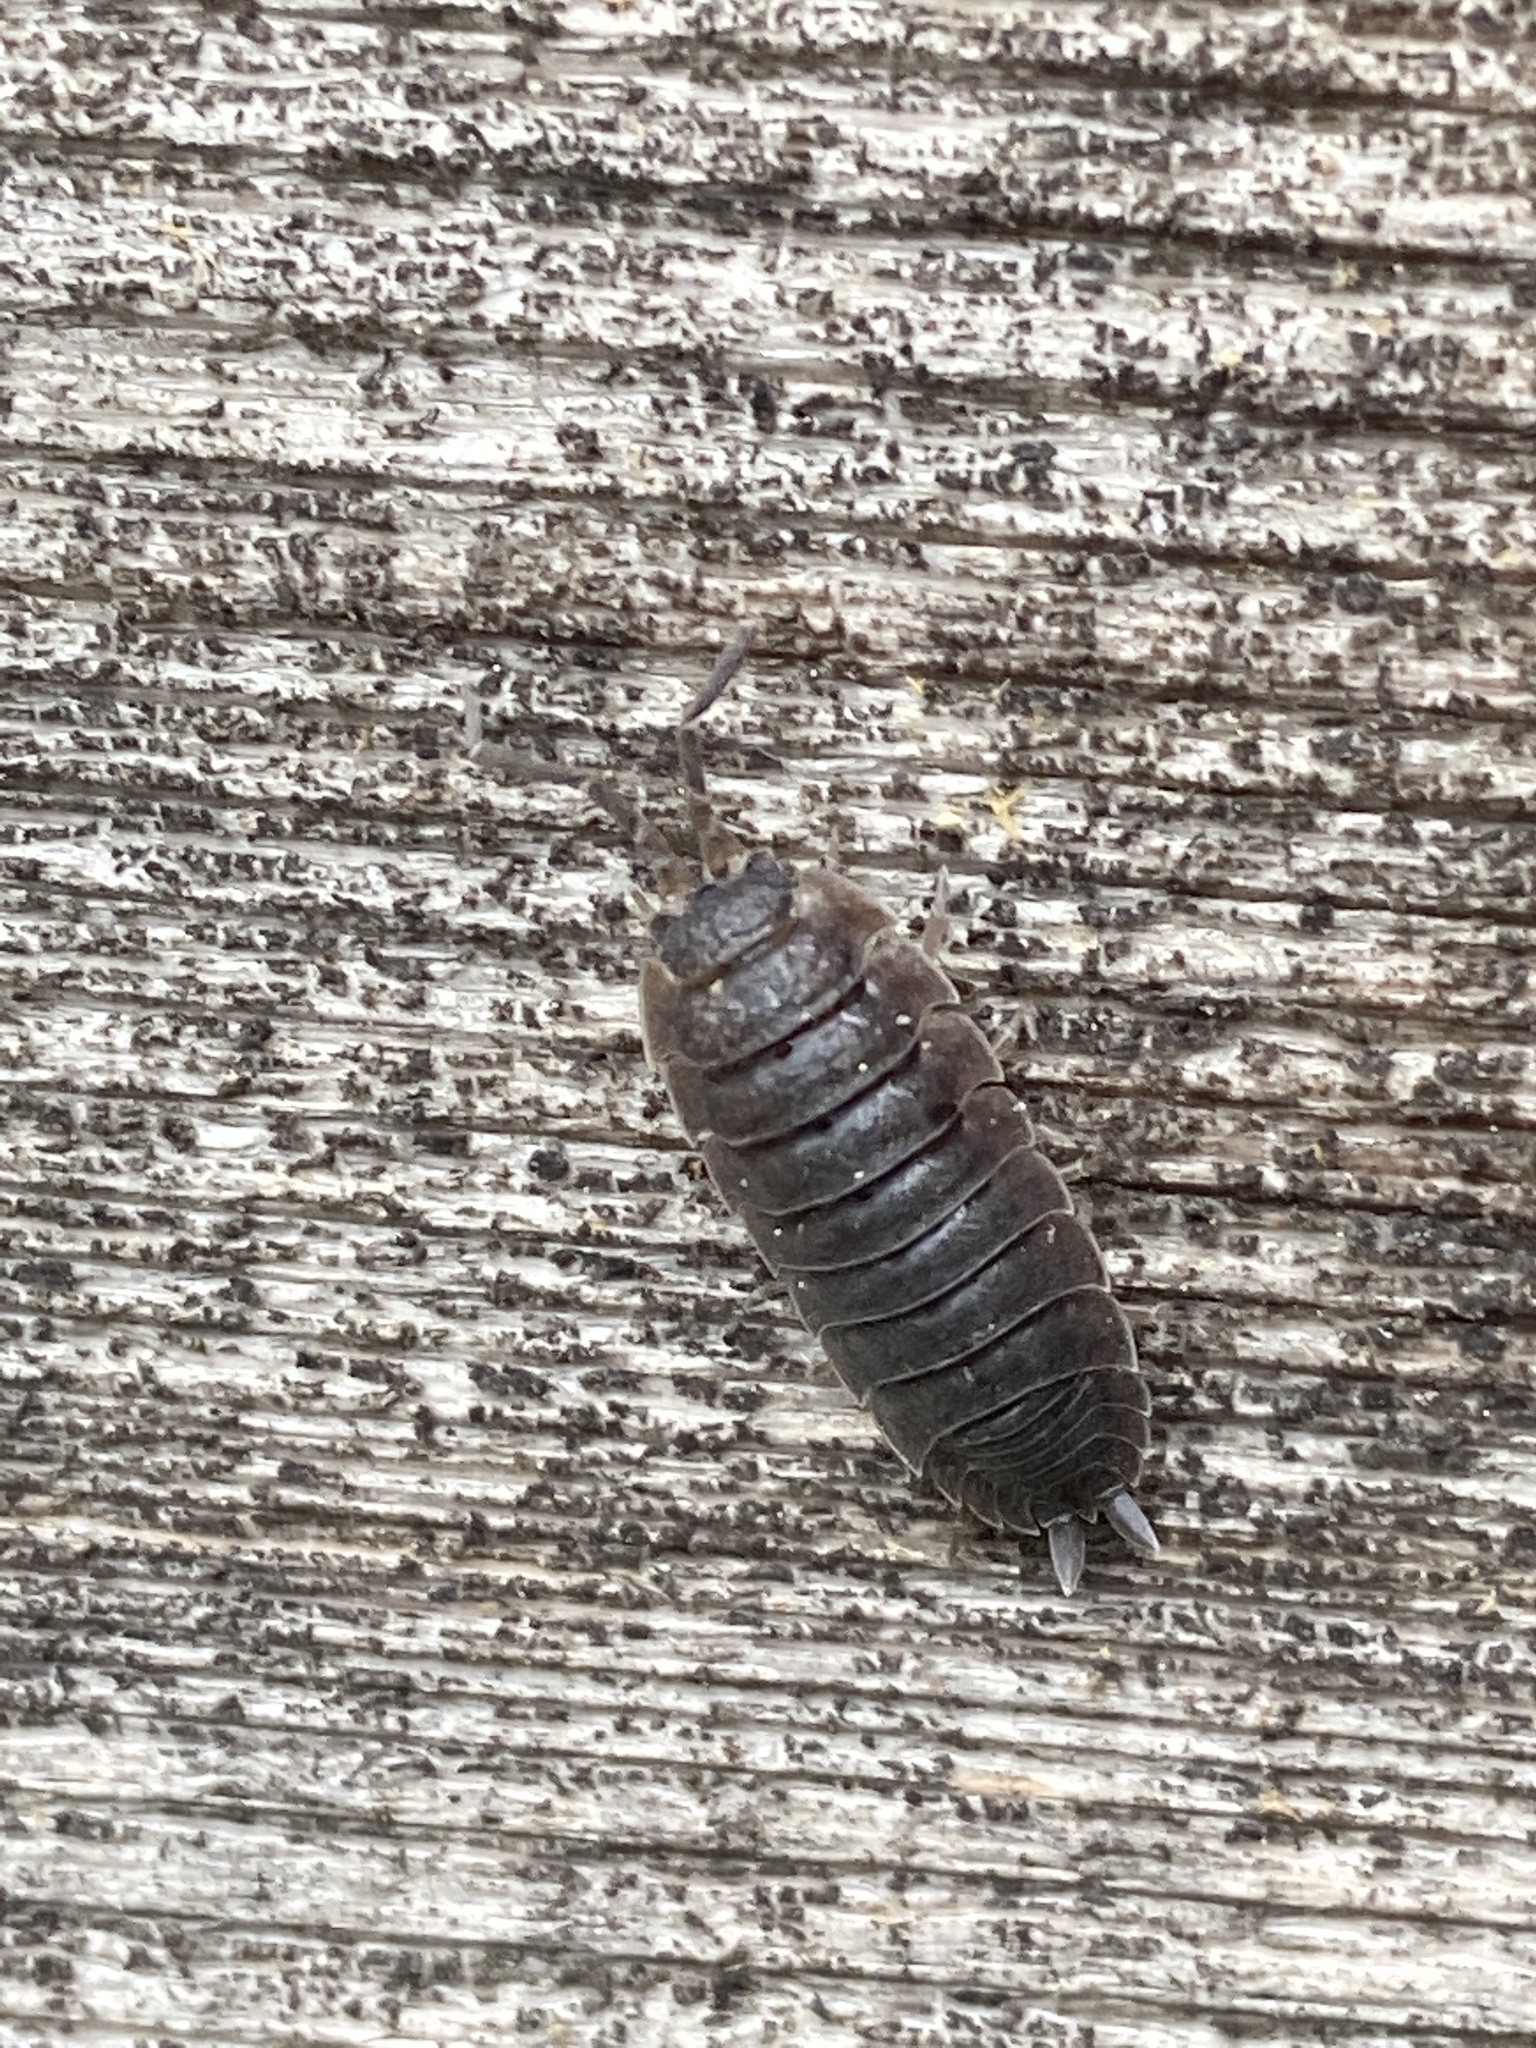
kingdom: Animalia
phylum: Arthropoda
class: Malacostraca
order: Isopoda
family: Porcellionidae
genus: Porcellio
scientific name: Porcellio scaber
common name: Common rough woodlouse
